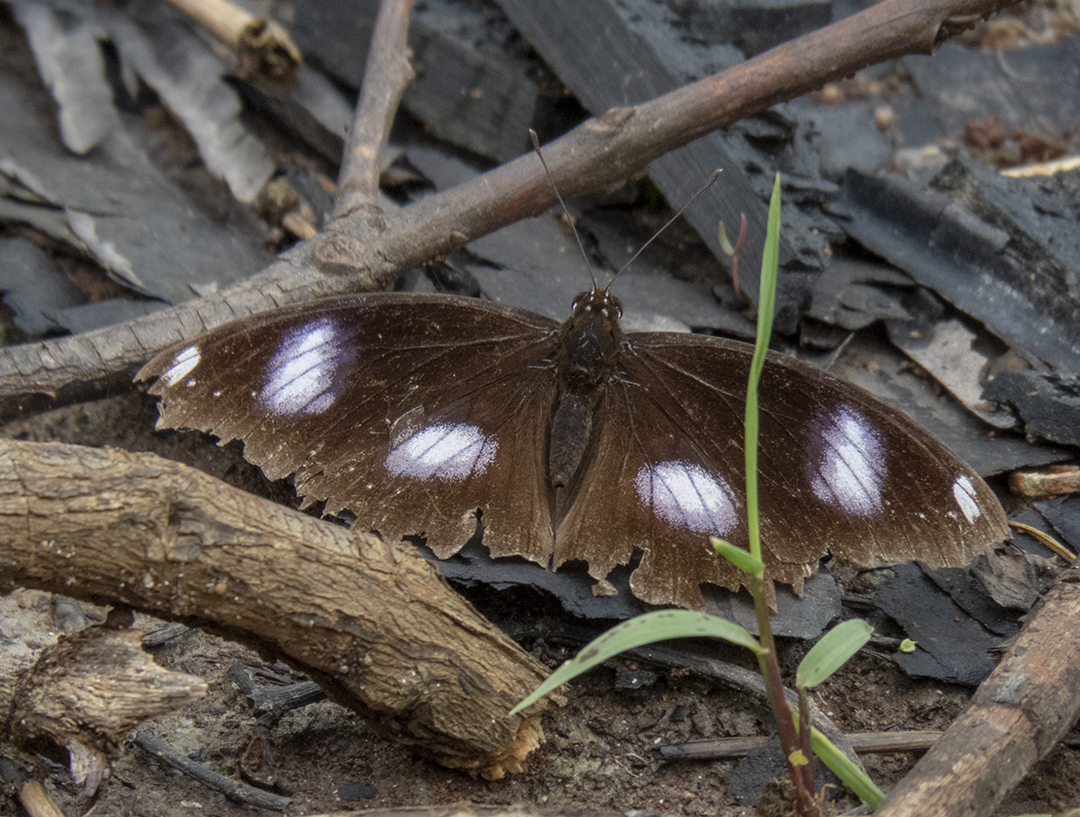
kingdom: Animalia
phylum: Arthropoda
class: Insecta
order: Lepidoptera
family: Nymphalidae
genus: Hypolimnas
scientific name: Hypolimnas bolina
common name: Great eggfly
